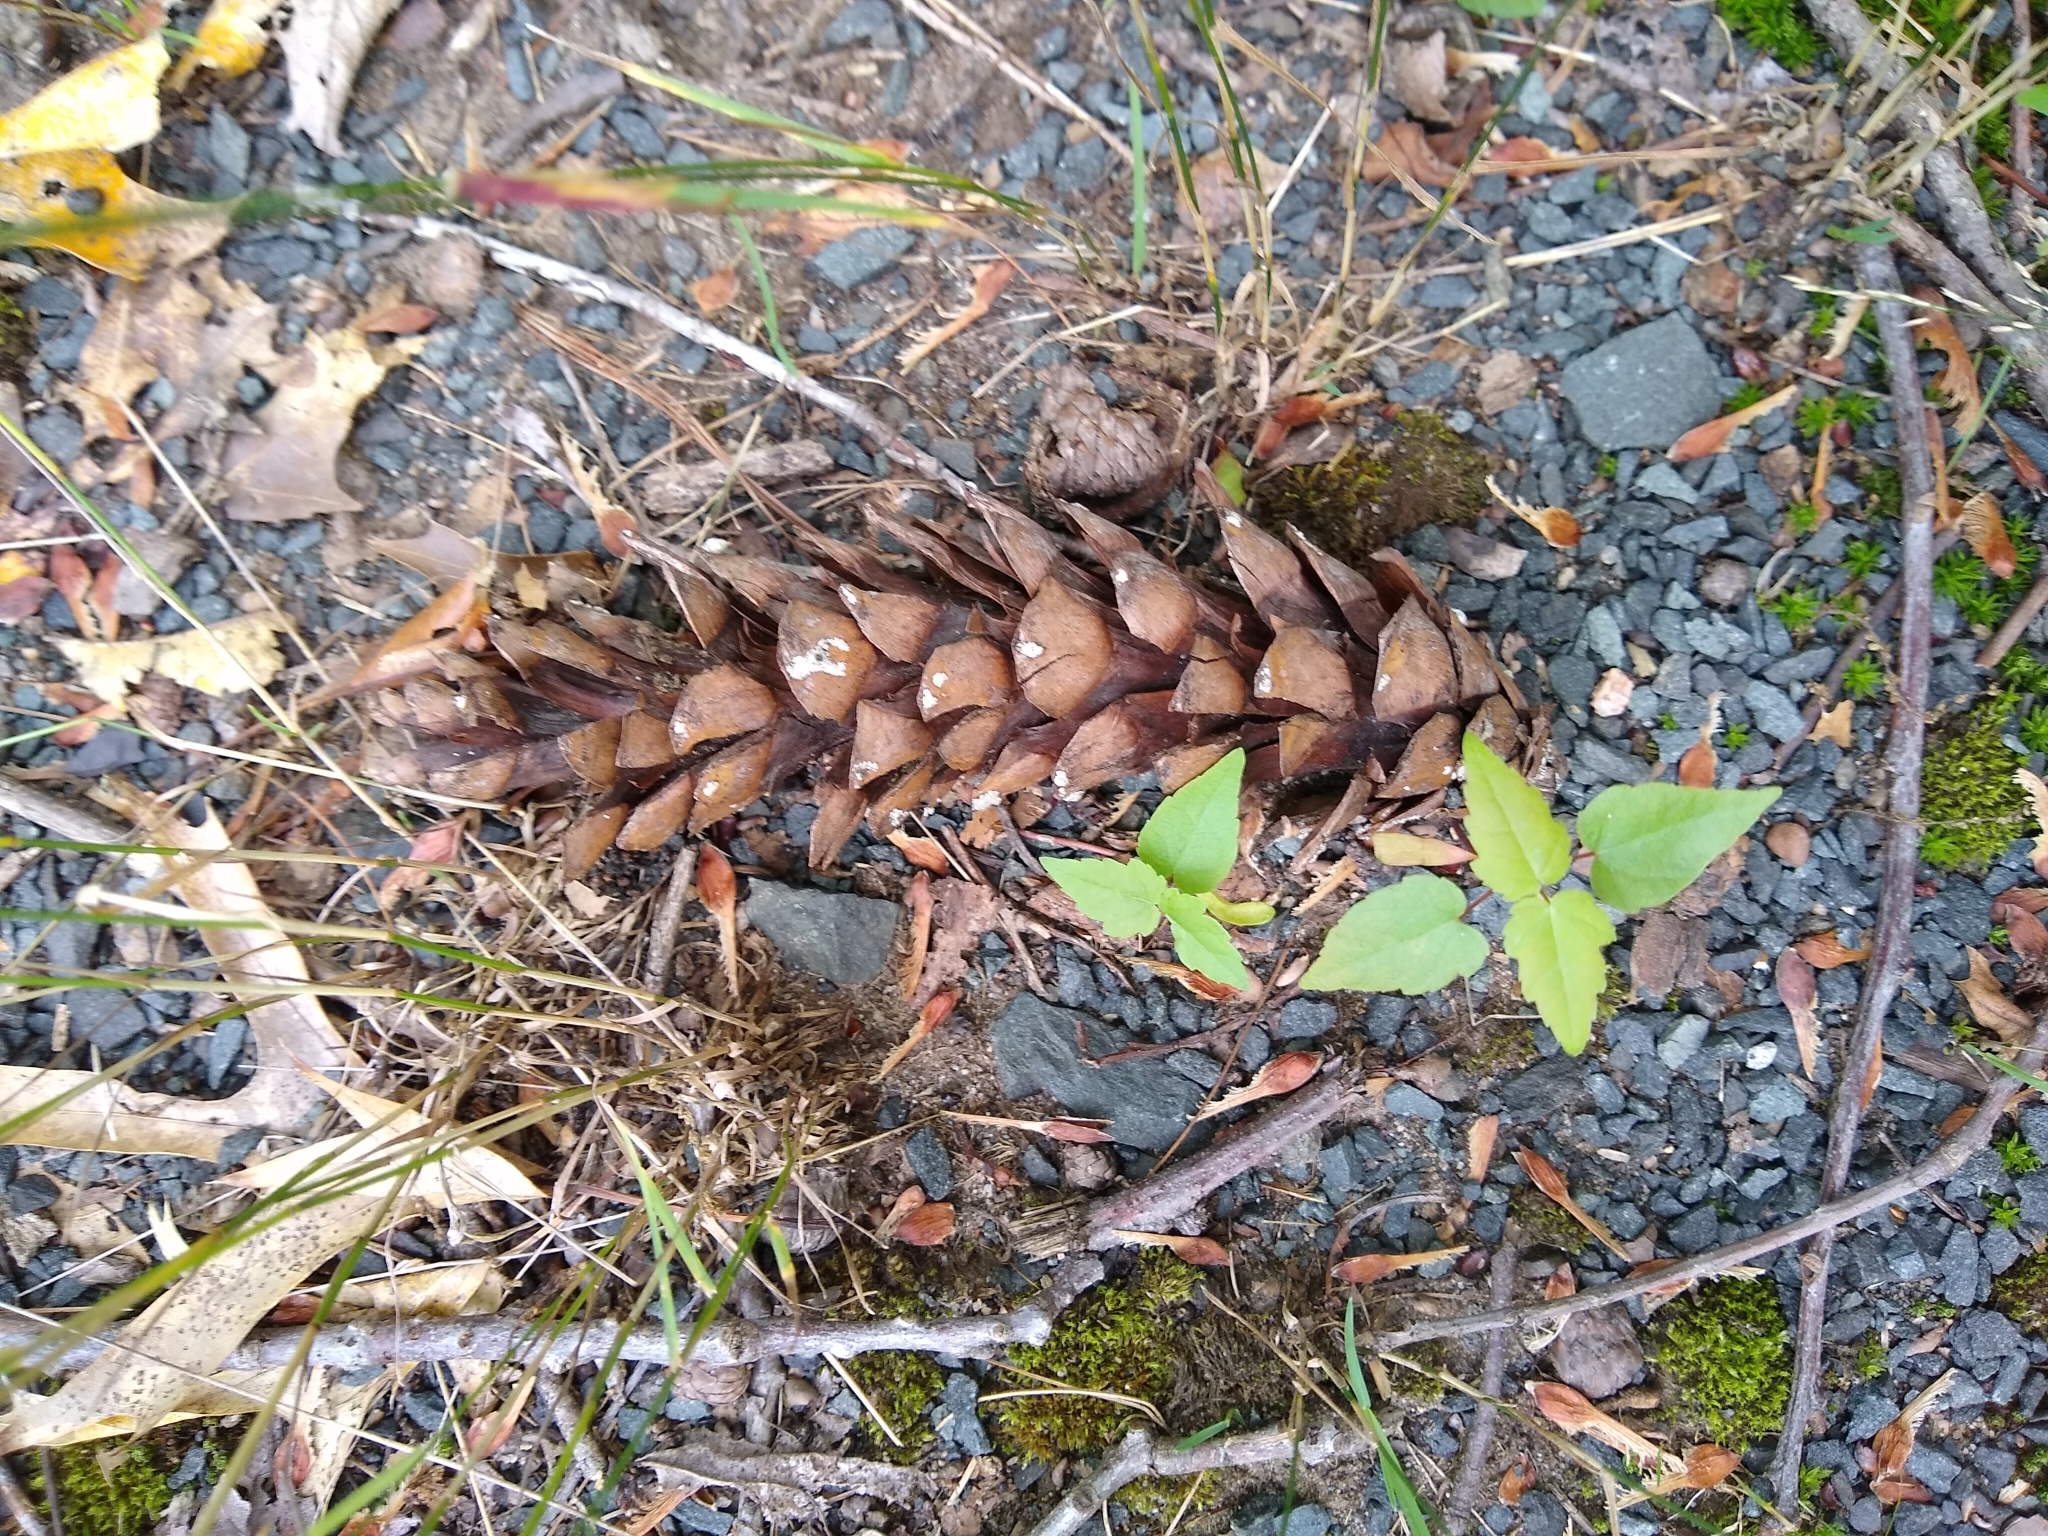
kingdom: Plantae
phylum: Tracheophyta
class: Pinopsida
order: Pinales
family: Pinaceae
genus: Pinus
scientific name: Pinus strobus
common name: Weymouth pine
